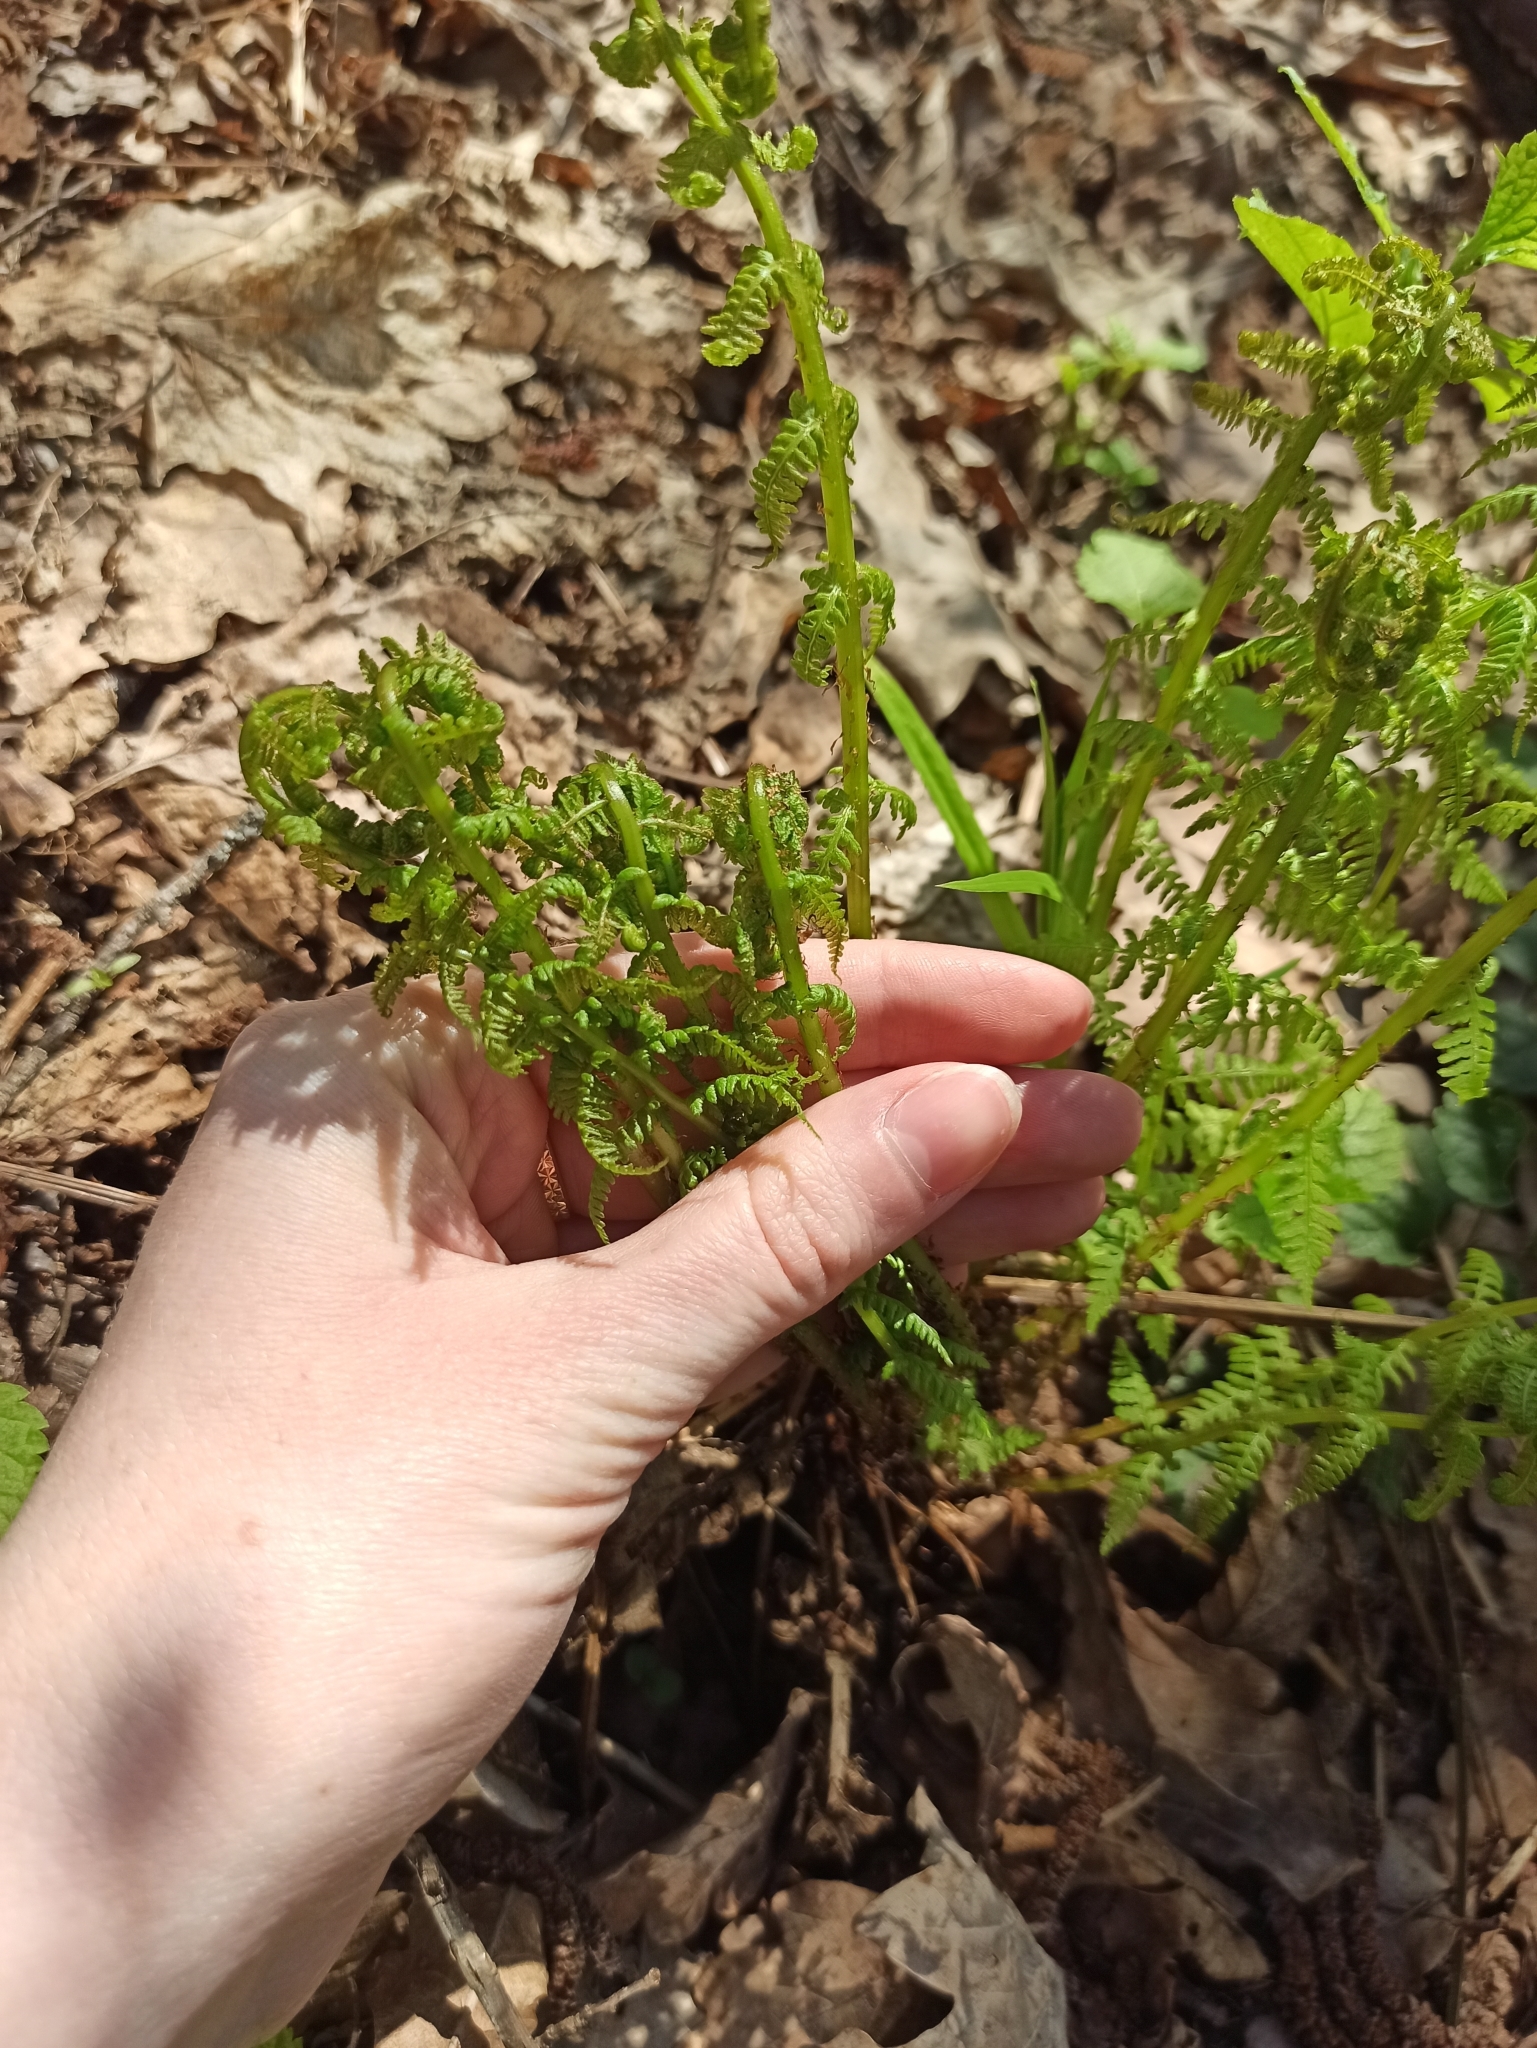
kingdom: Plantae
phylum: Tracheophyta
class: Polypodiopsida
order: Polypodiales
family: Athyriaceae
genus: Athyrium
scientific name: Athyrium filix-femina
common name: Lady fern
